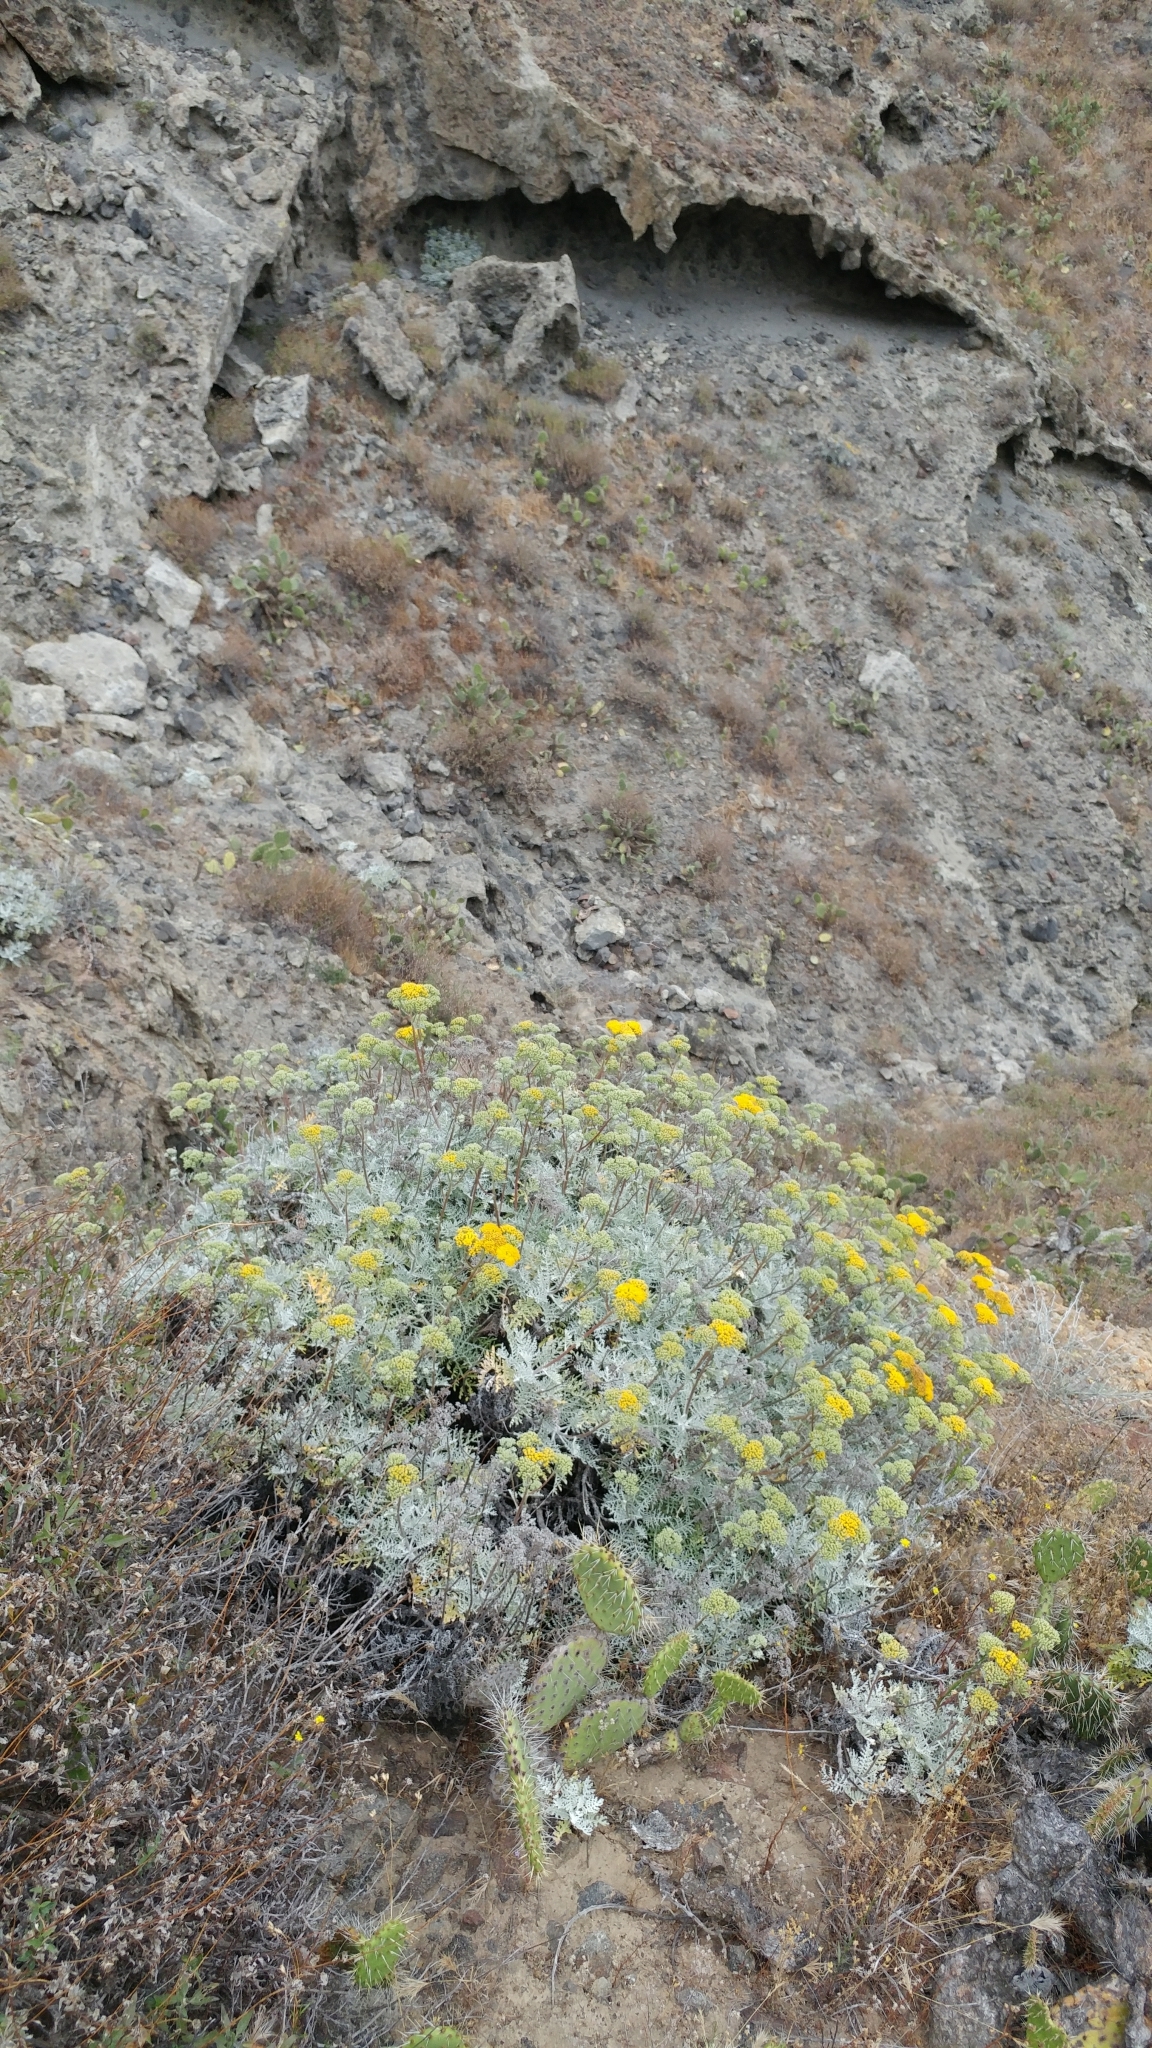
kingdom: Plantae
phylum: Tracheophyta
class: Magnoliopsida
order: Asterales
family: Asteraceae
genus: Constancea
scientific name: Constancea nevinii
